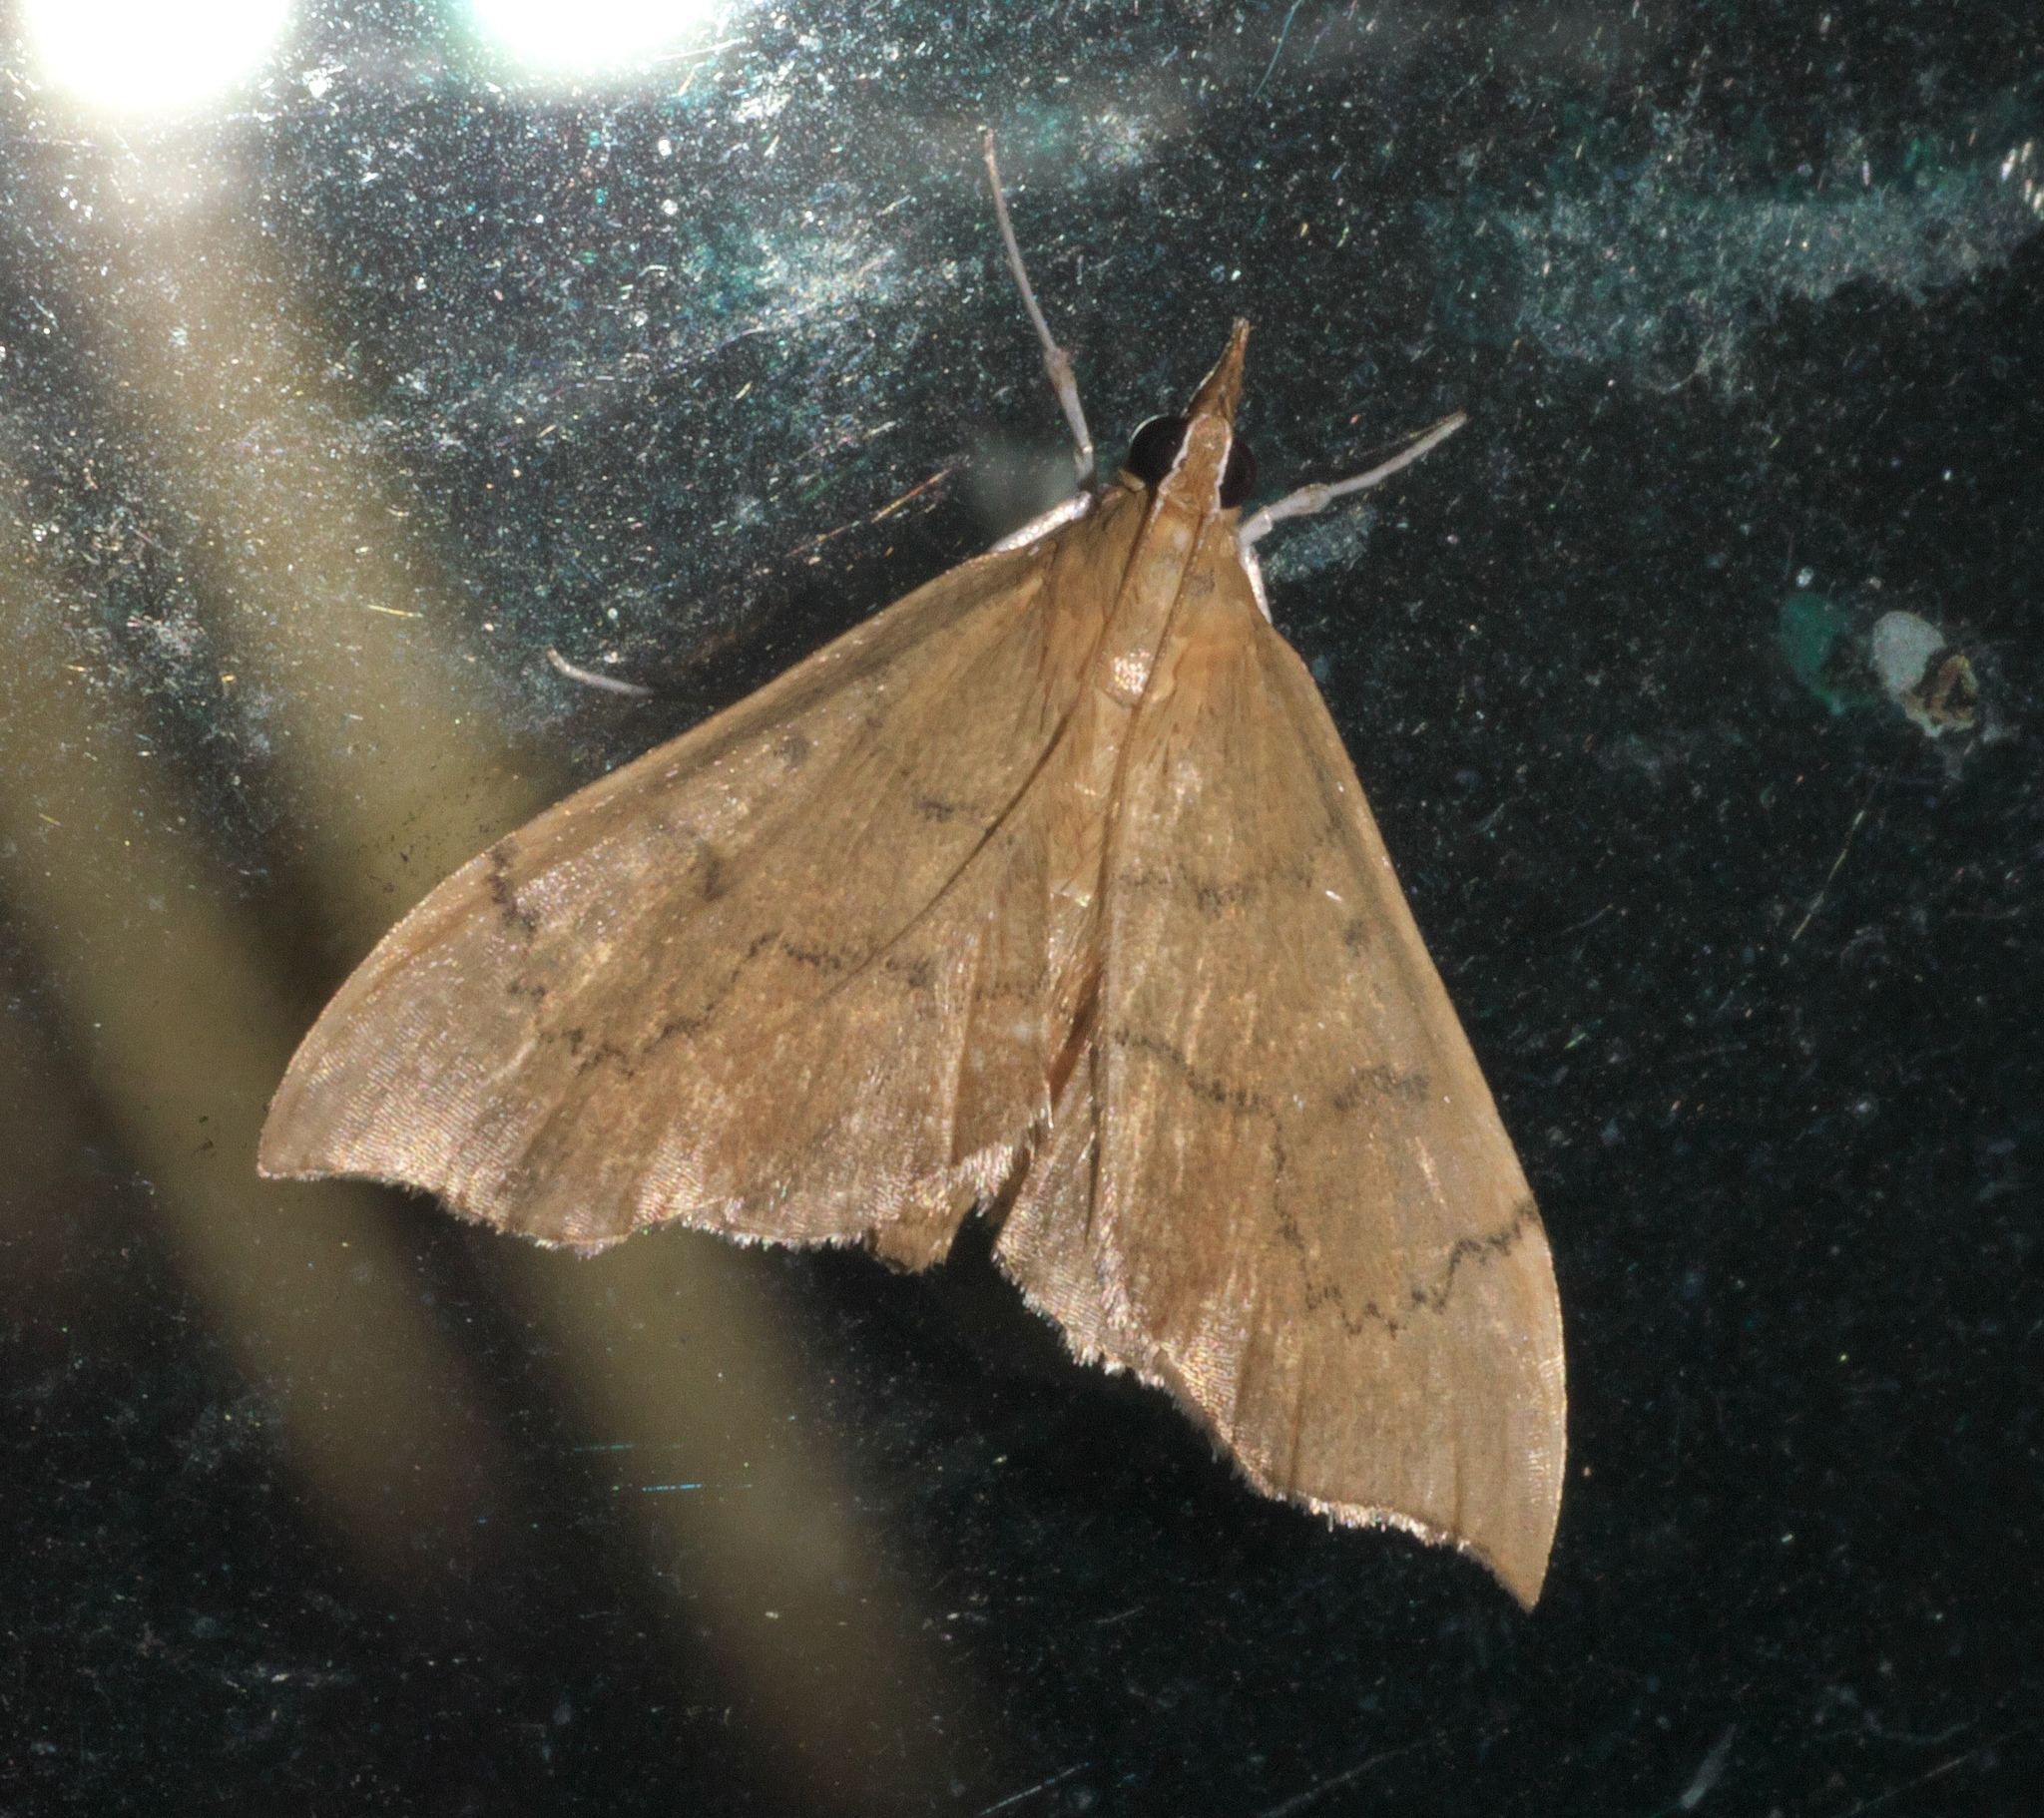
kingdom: Animalia
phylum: Arthropoda
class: Insecta
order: Lepidoptera
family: Crambidae
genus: Sericoplaga
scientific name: Sericoplaga externalis
